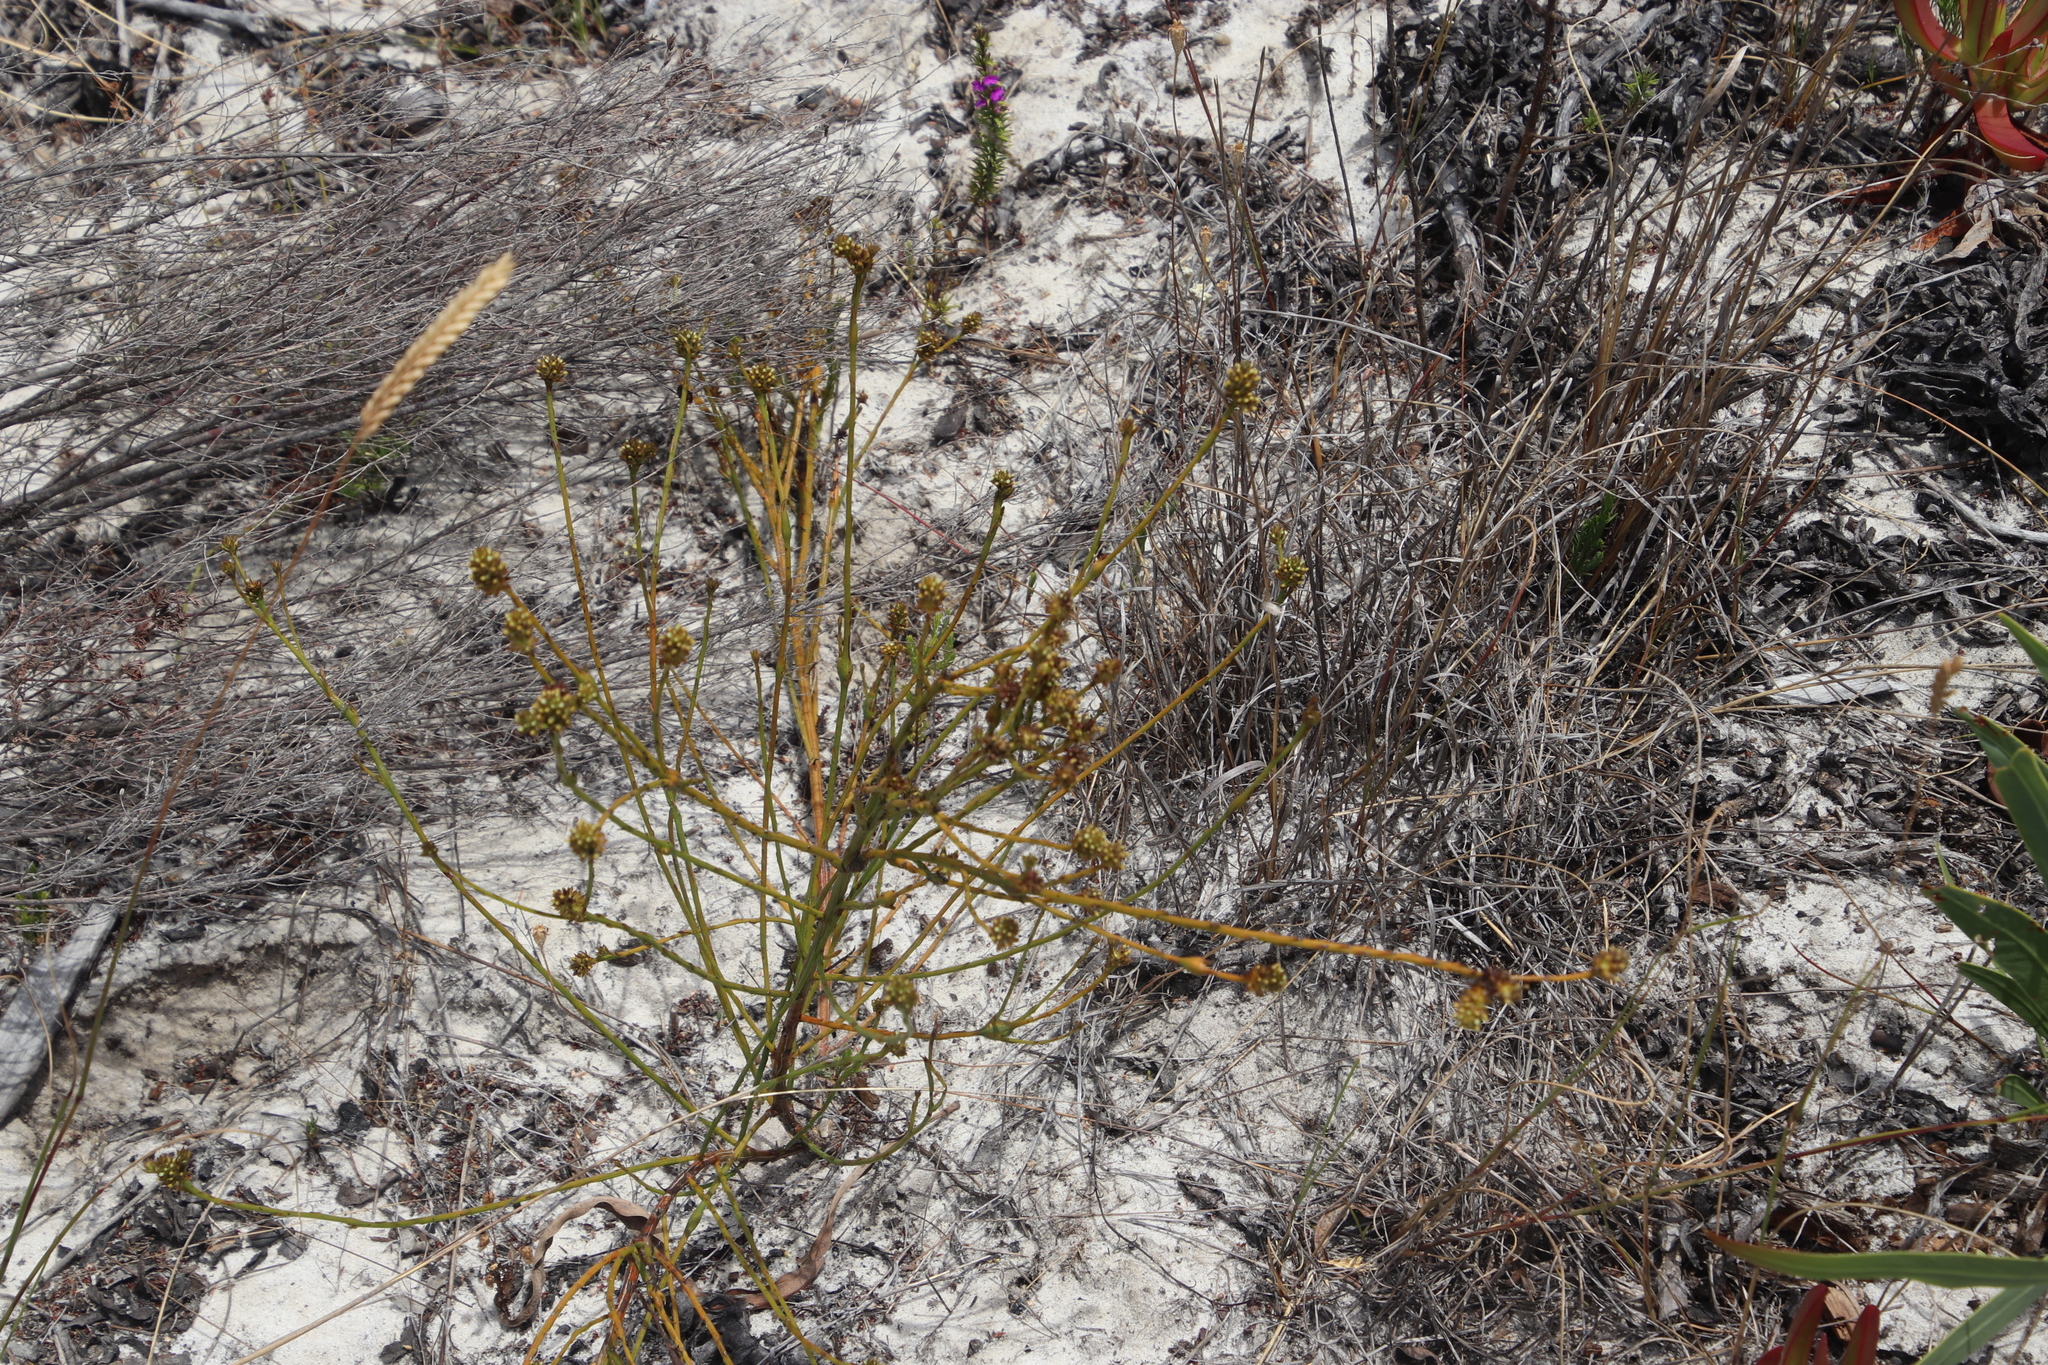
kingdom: Plantae
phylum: Tracheophyta
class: Magnoliopsida
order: Santalales
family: Thesiaceae
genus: Thesium
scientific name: Thesium aggregatum
